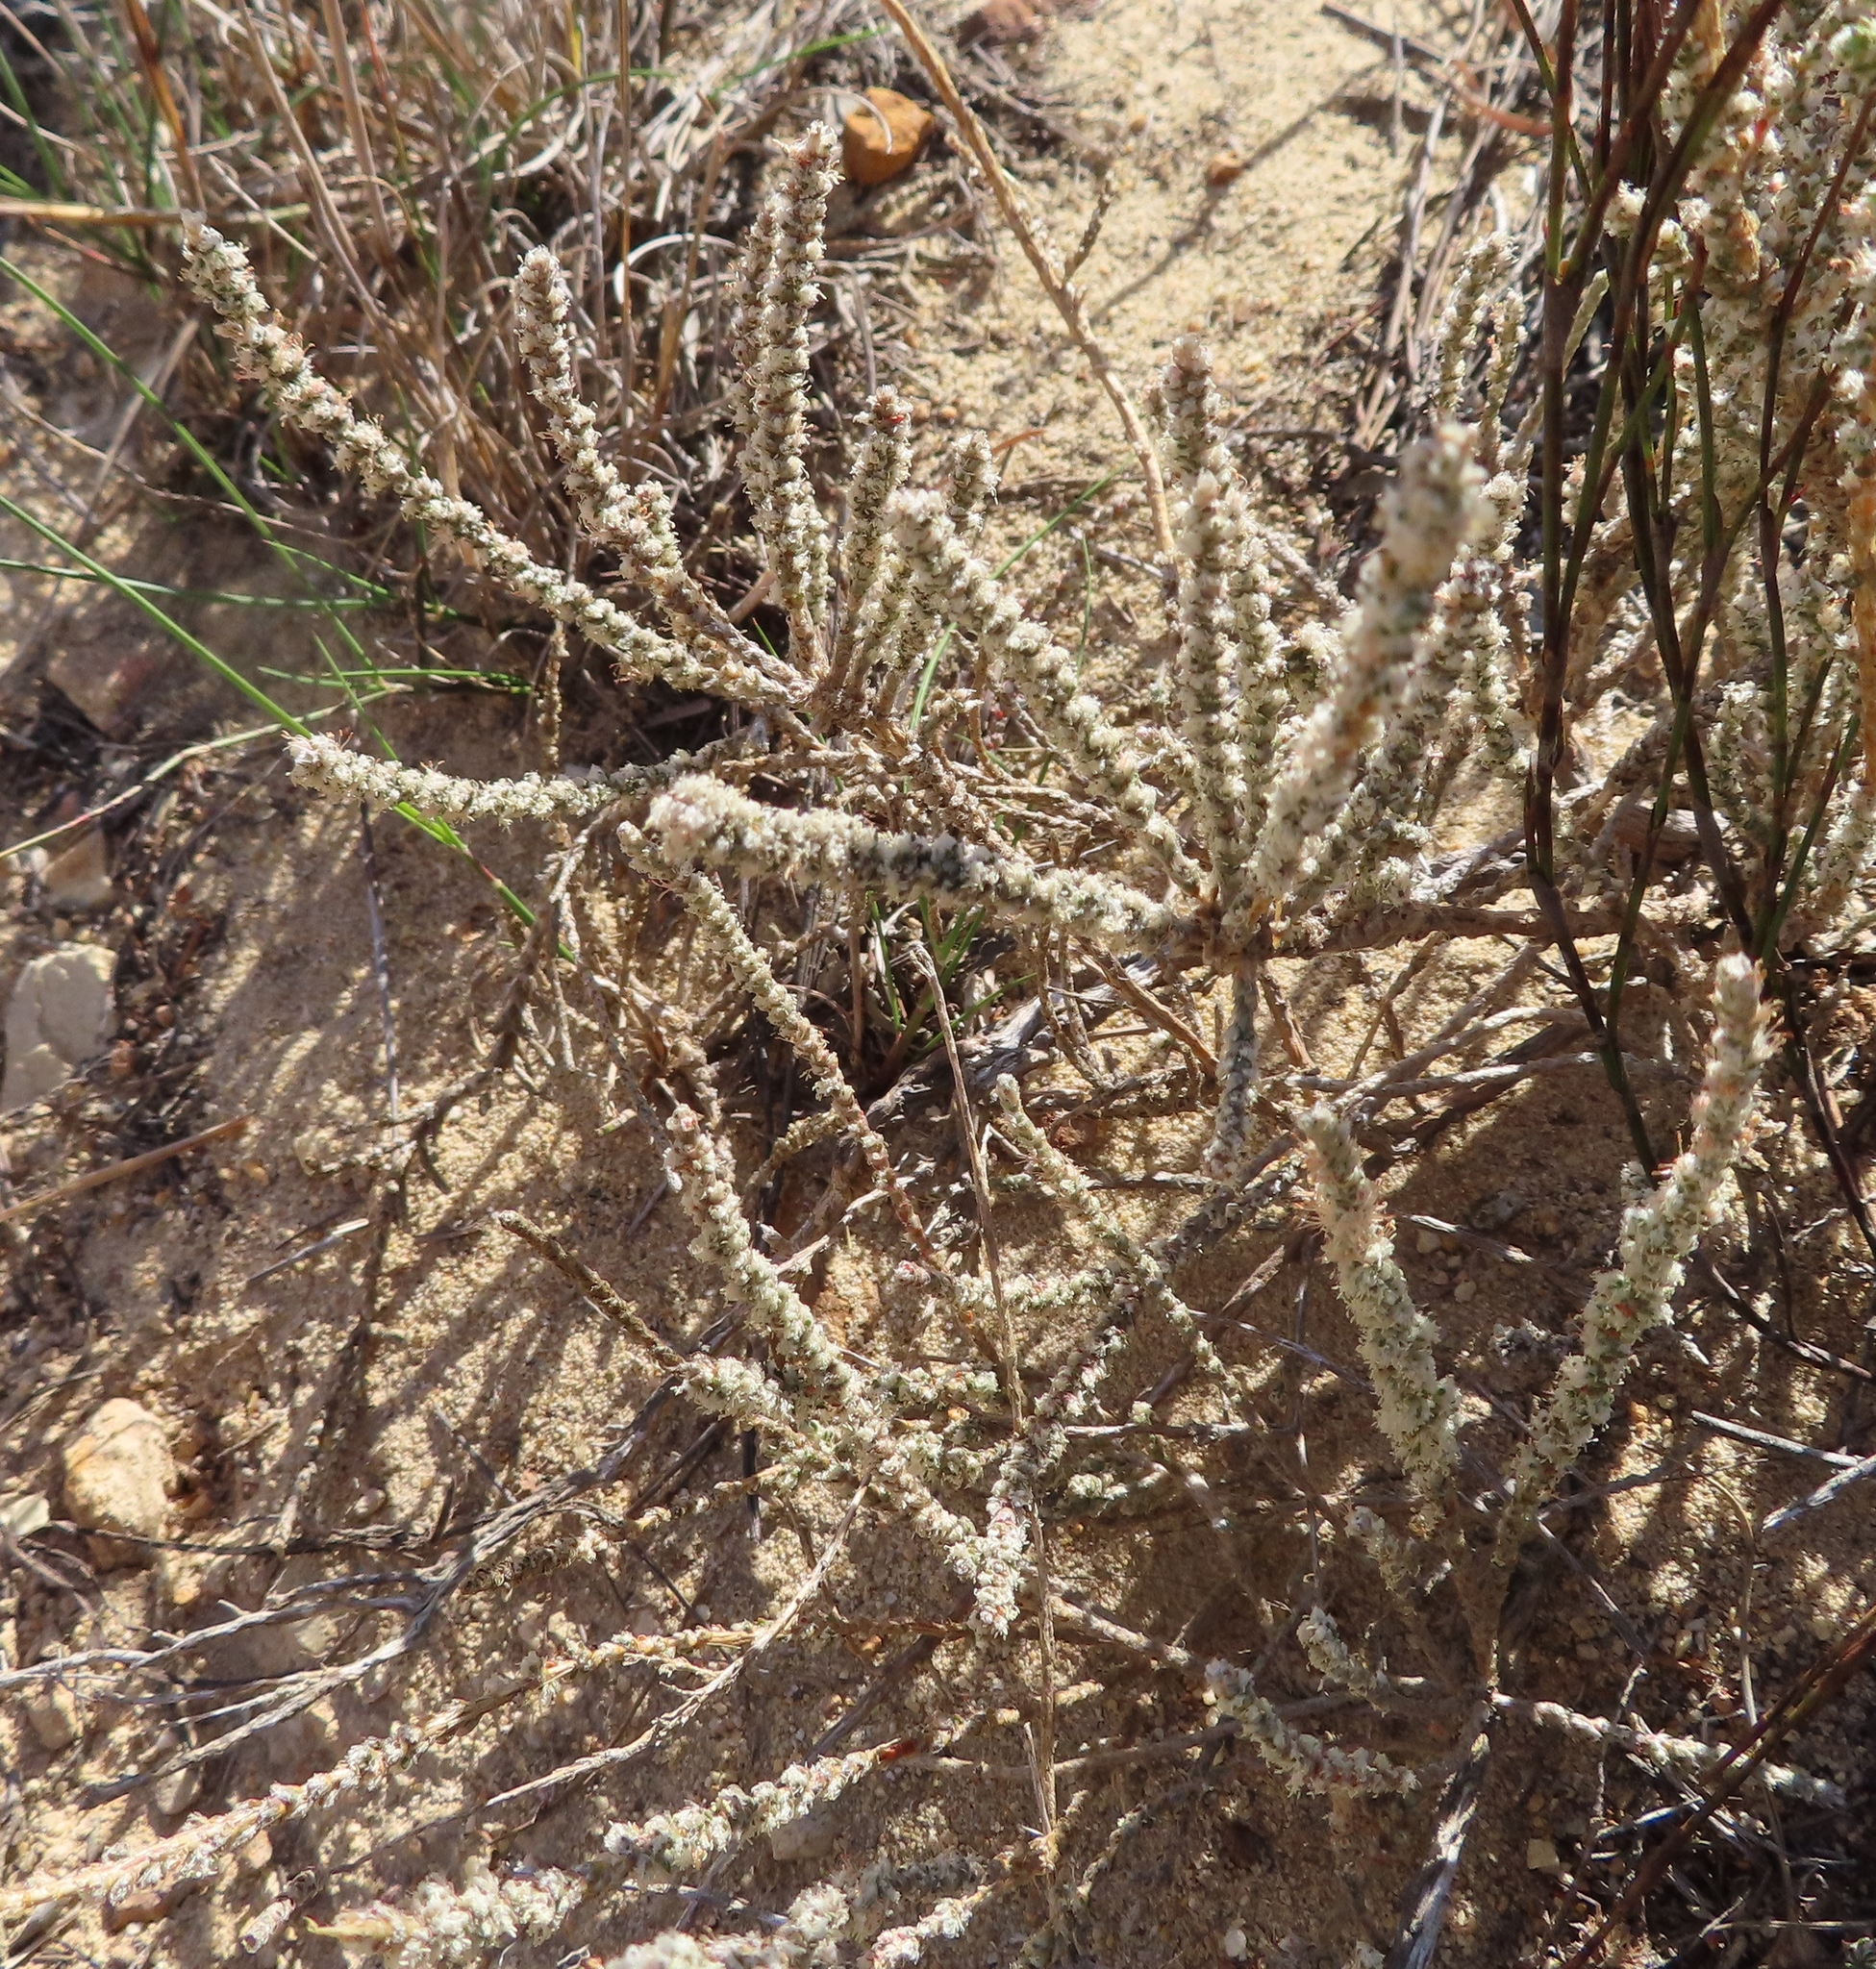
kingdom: Plantae
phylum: Tracheophyta
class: Magnoliopsida
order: Caryophyllales
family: Molluginaceae
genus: Polpoda
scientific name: Polpoda capensis
